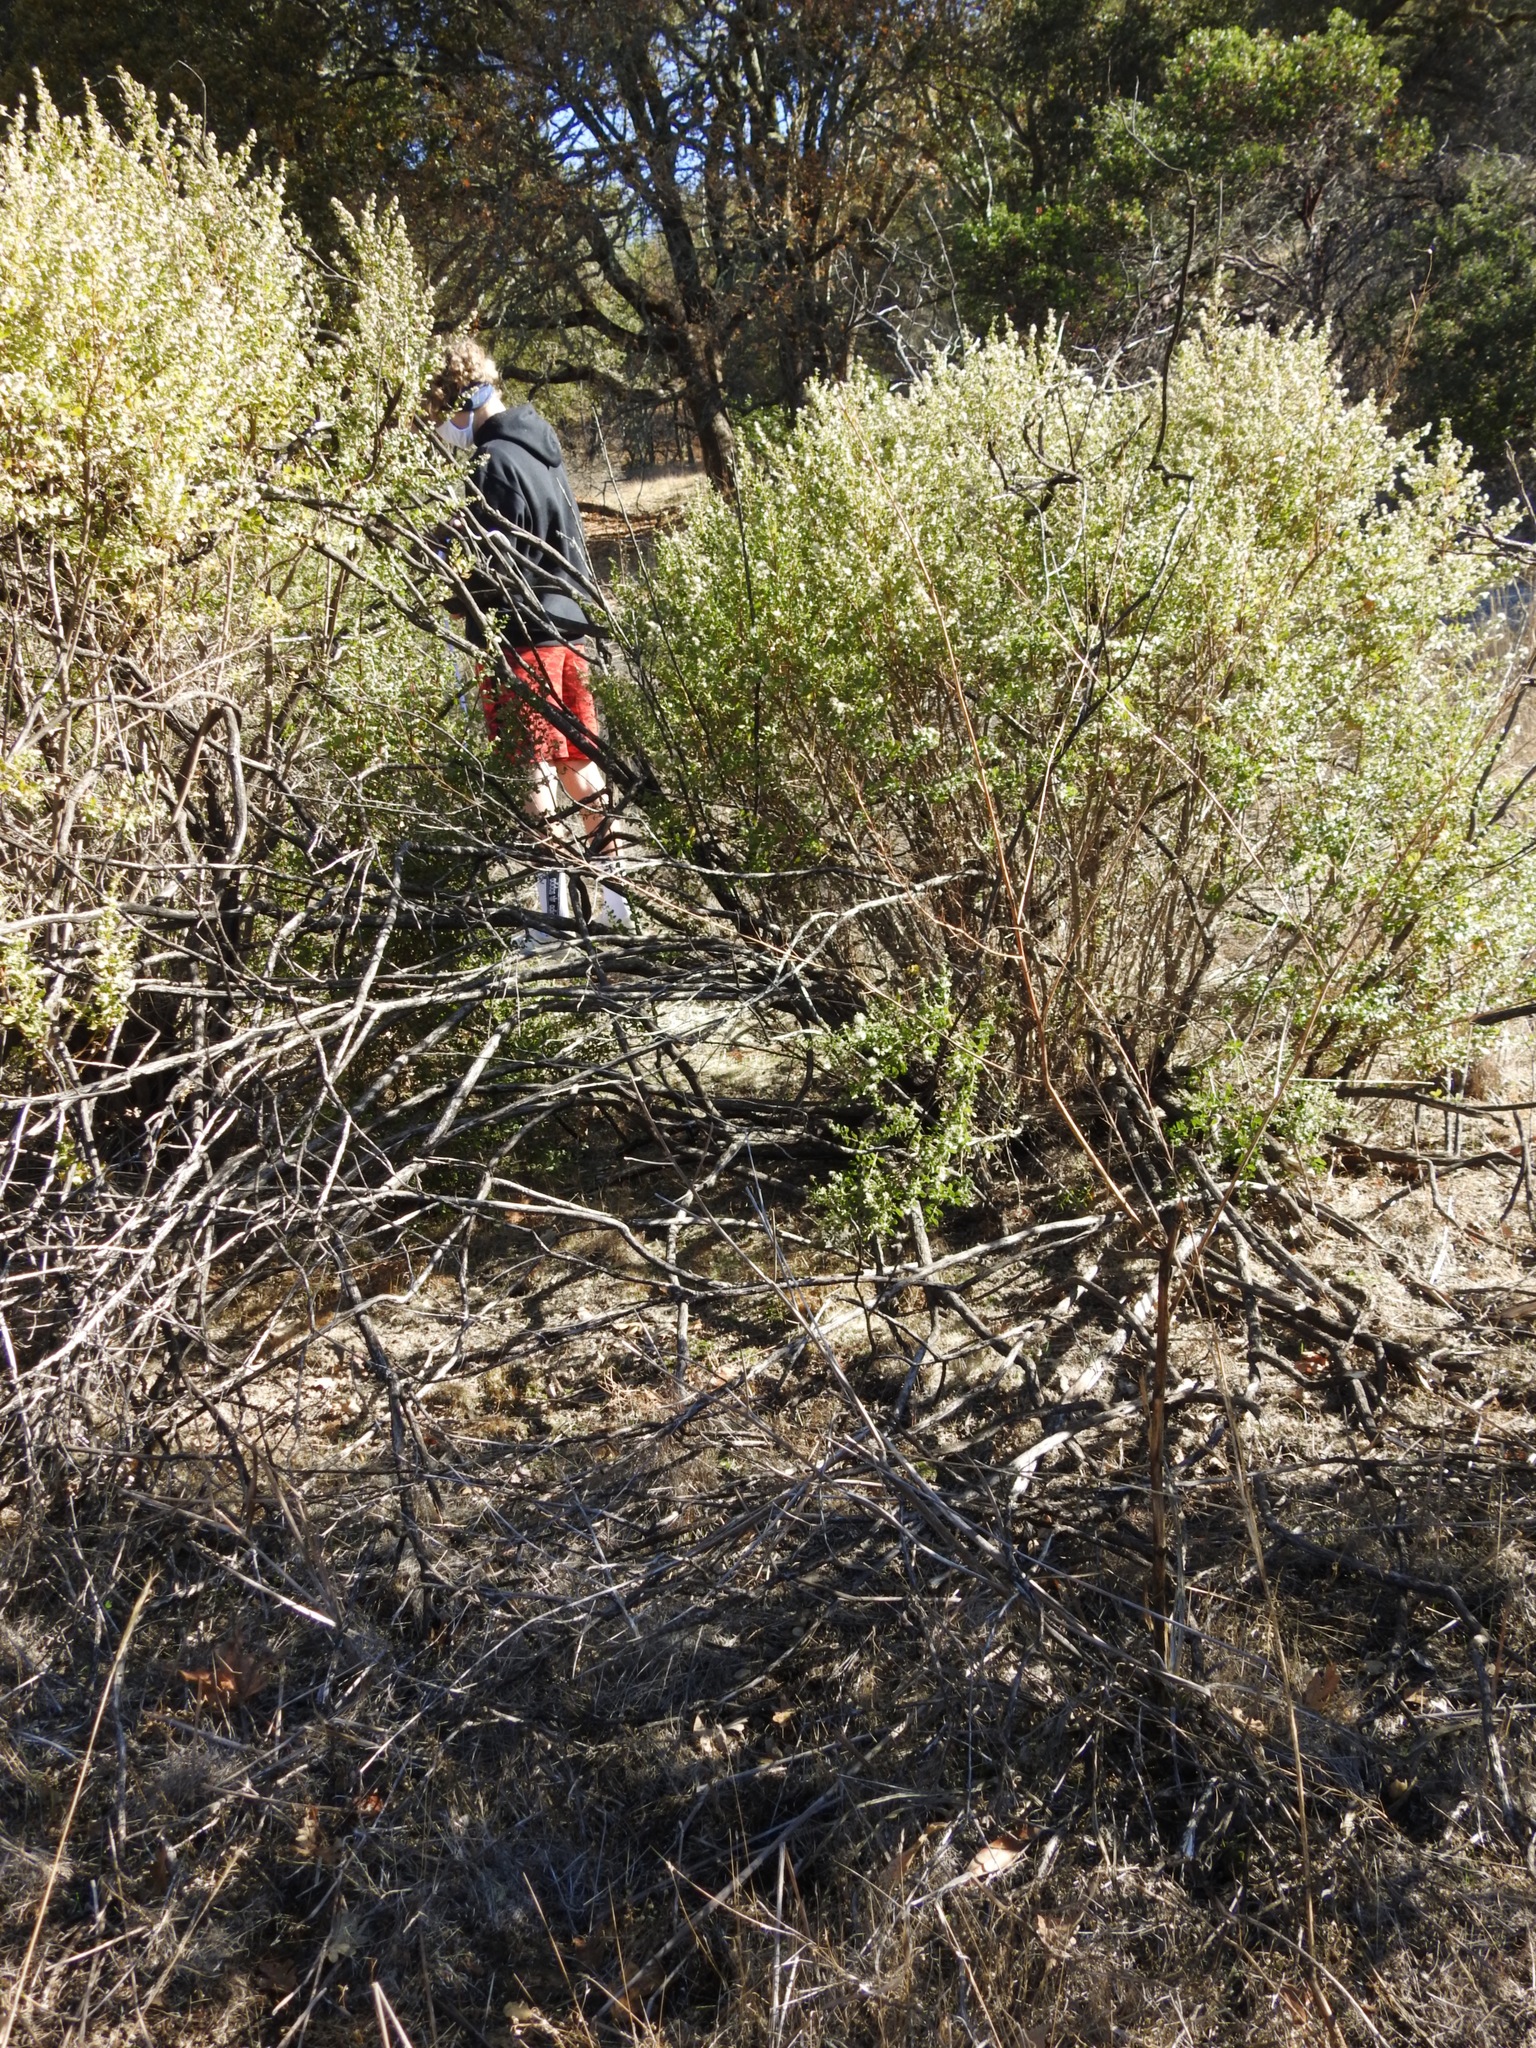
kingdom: Plantae
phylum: Tracheophyta
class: Magnoliopsida
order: Asterales
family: Asteraceae
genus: Baccharis
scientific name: Baccharis pilularis
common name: Coyotebrush
